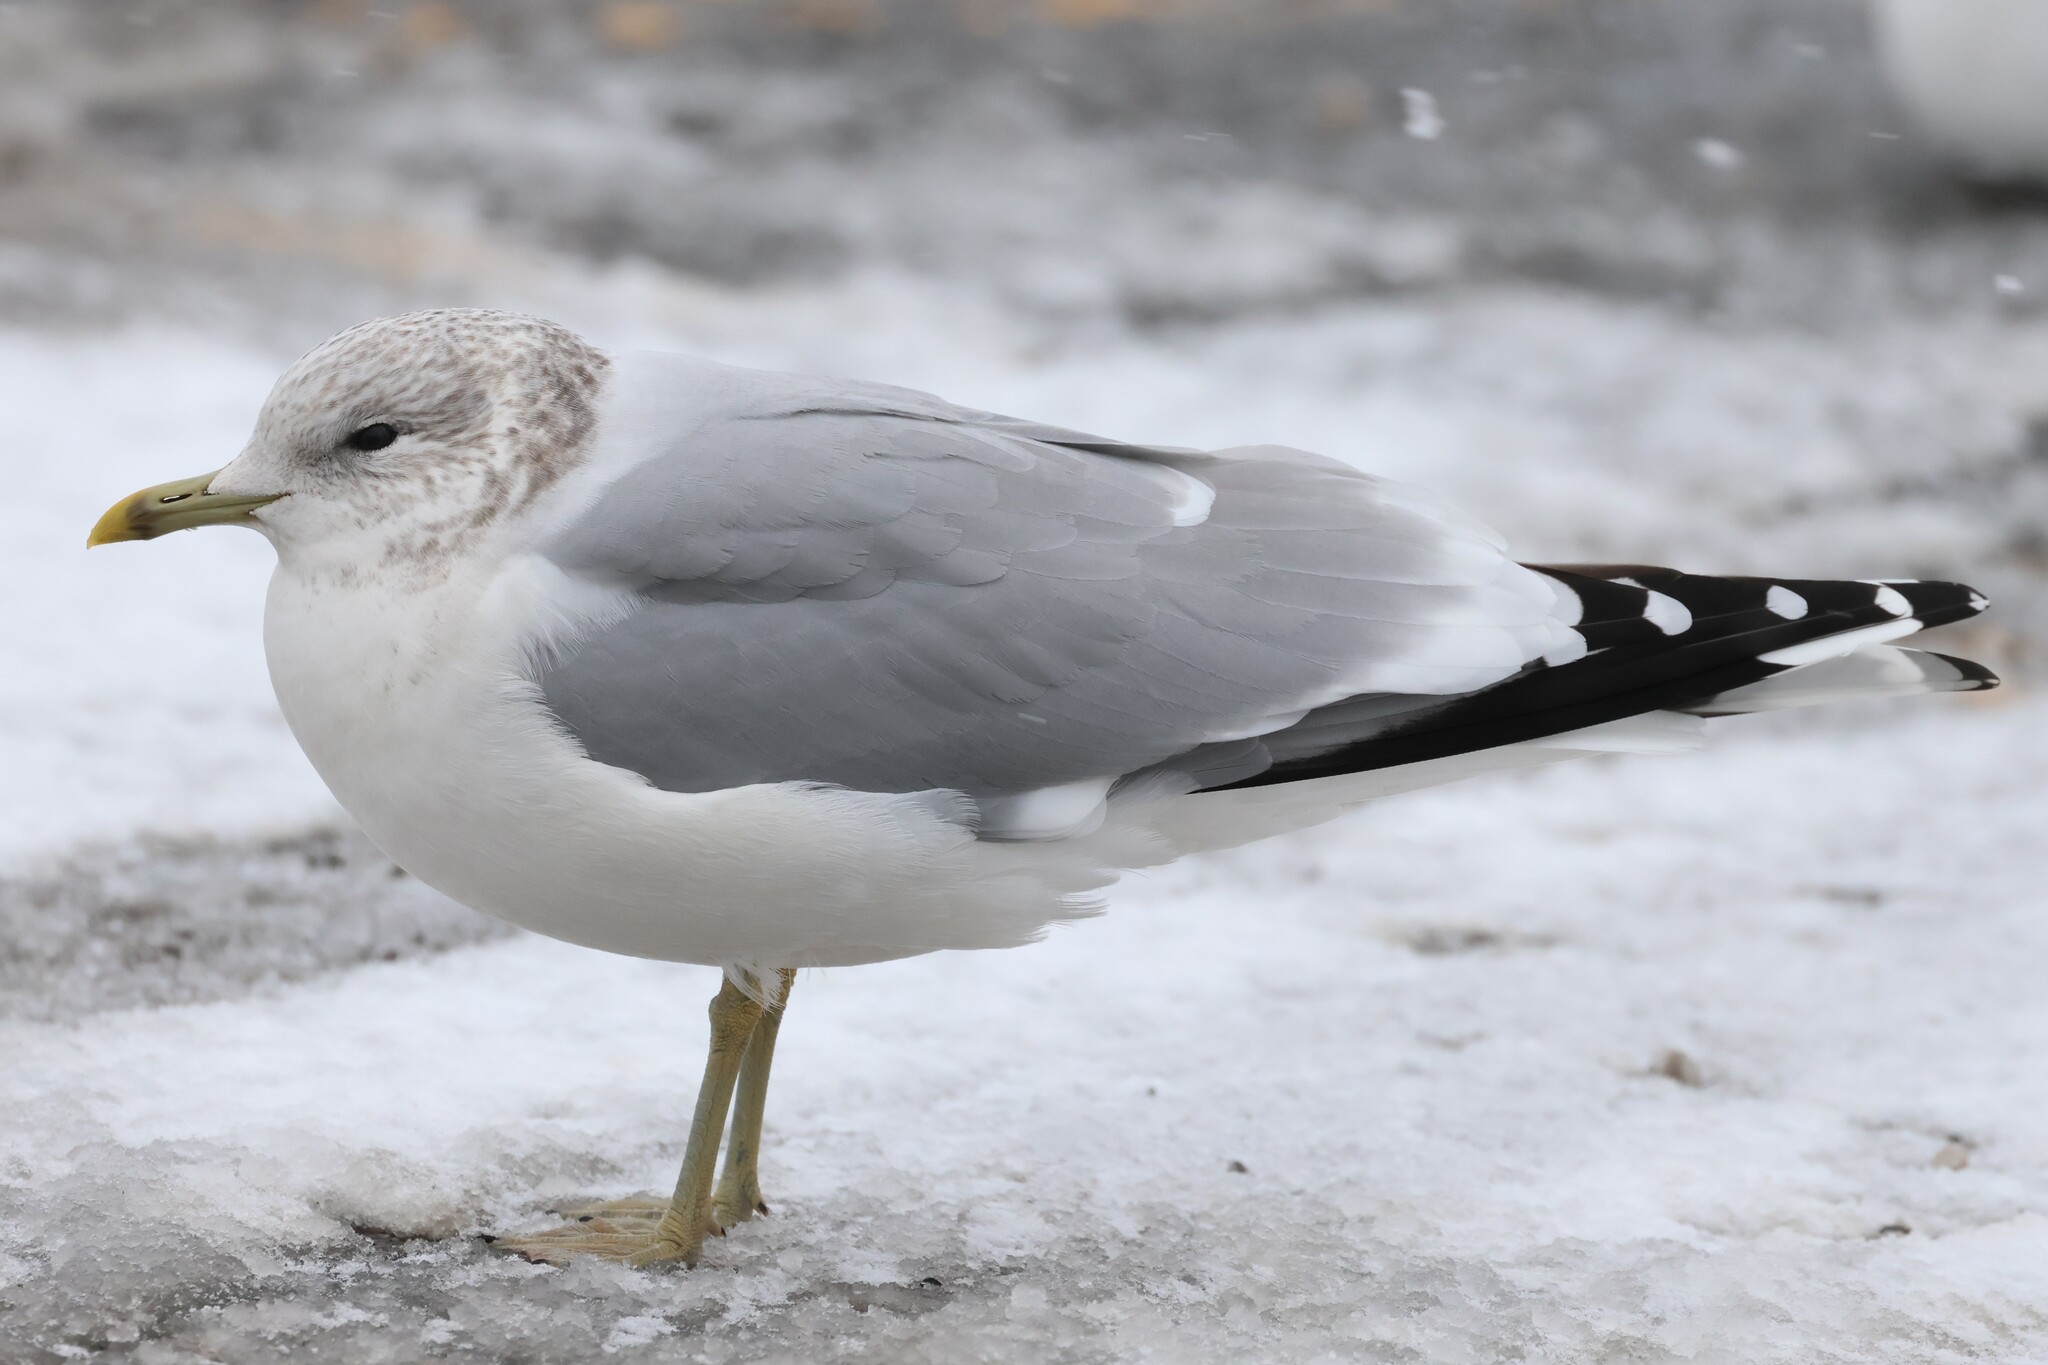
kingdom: Animalia
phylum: Chordata
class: Aves
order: Charadriiformes
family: Laridae
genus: Larus
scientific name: Larus canus
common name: Mew gull
